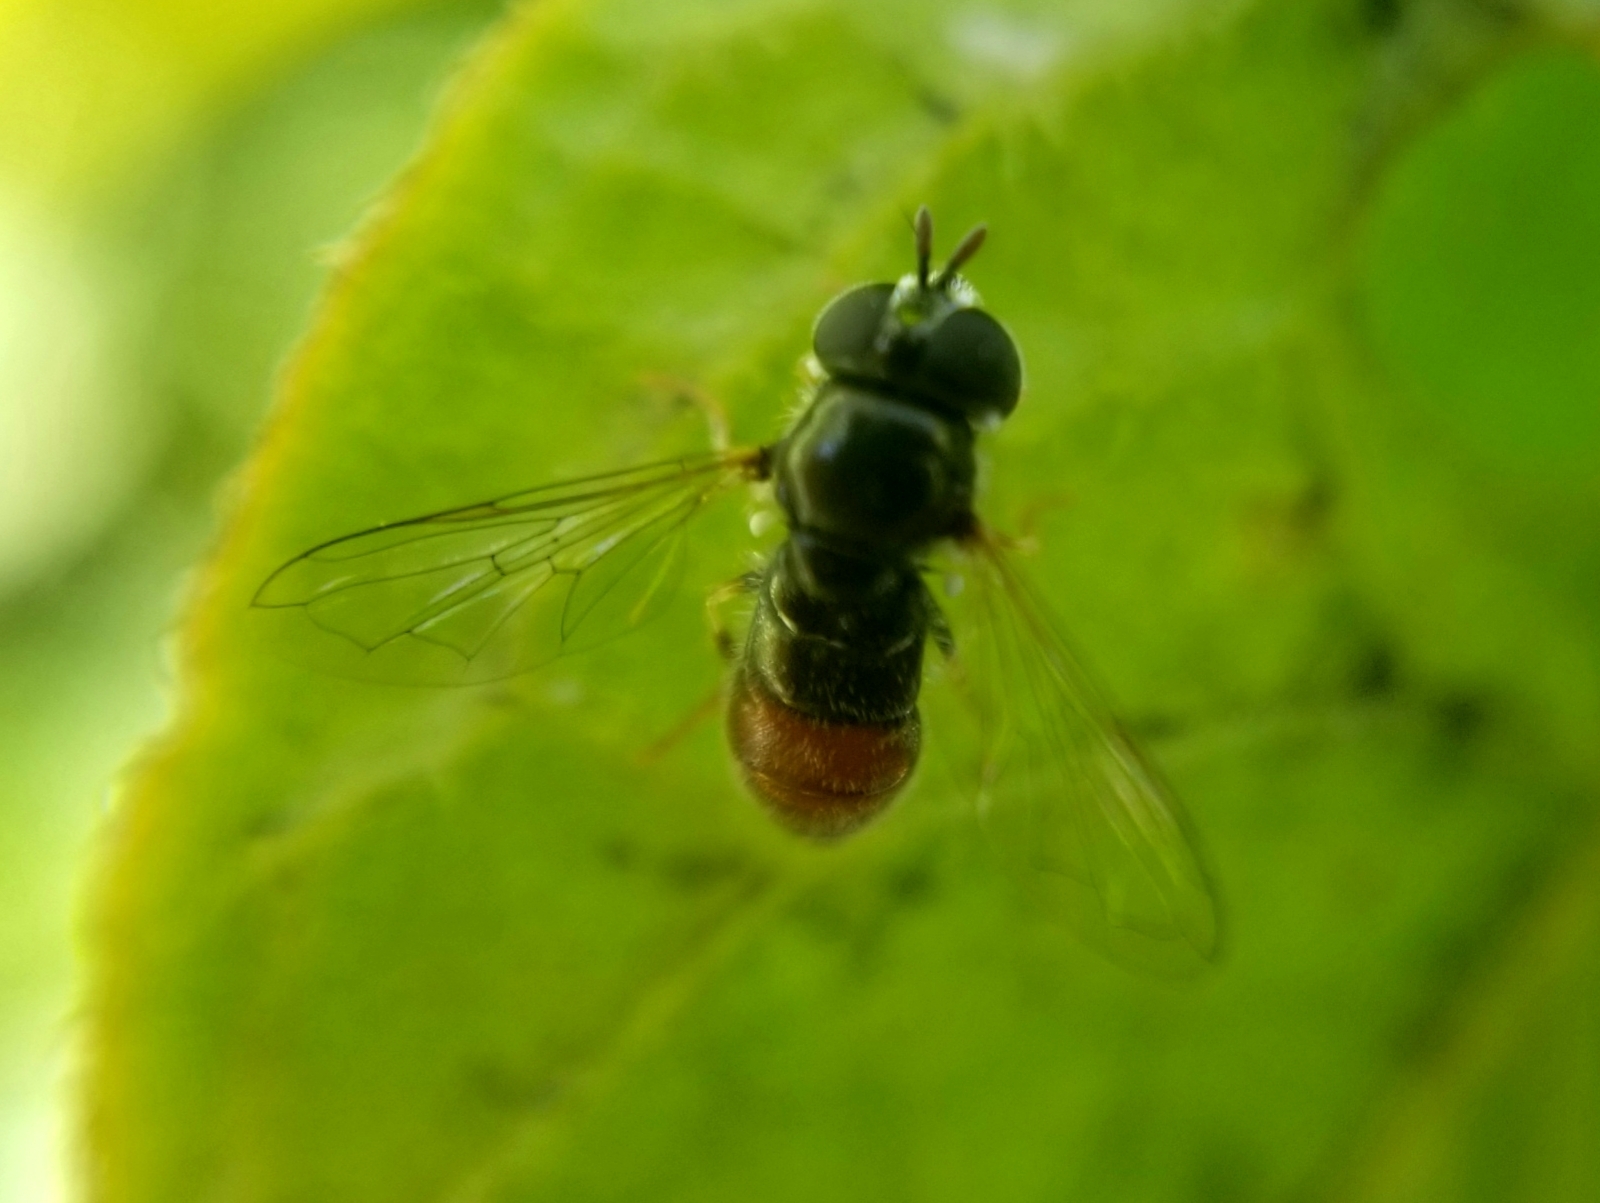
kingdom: Animalia
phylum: Arthropoda
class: Insecta
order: Diptera
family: Syrphidae
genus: Paragus
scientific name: Paragus haemorrhous
